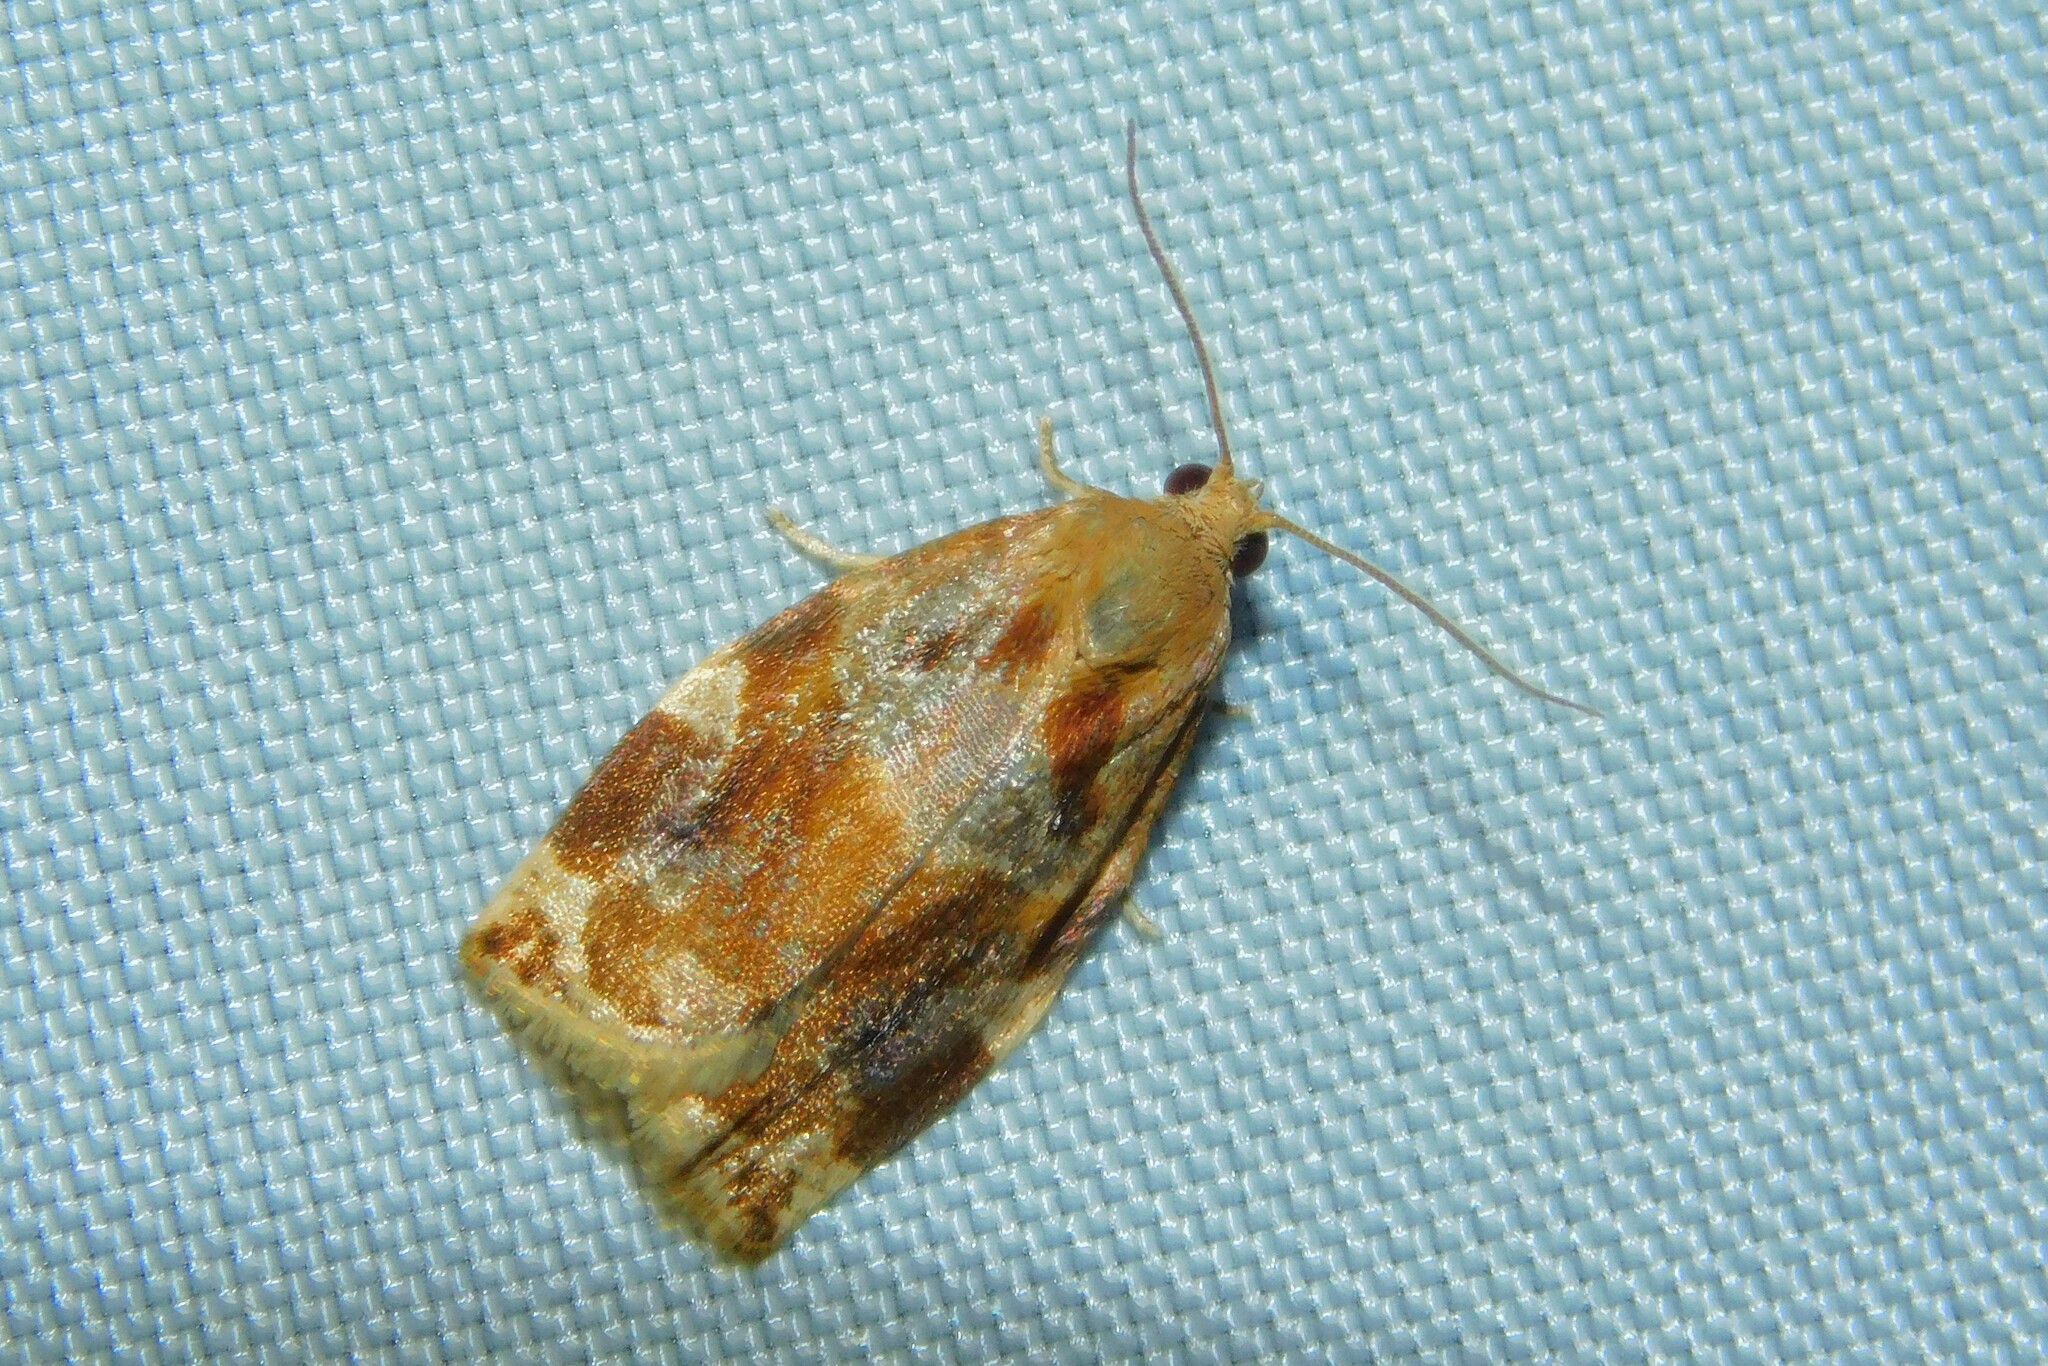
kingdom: Animalia
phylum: Arthropoda
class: Insecta
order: Lepidoptera
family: Tortricidae
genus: Archips
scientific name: Archips xylosteana
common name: Variegated golden tortrix
